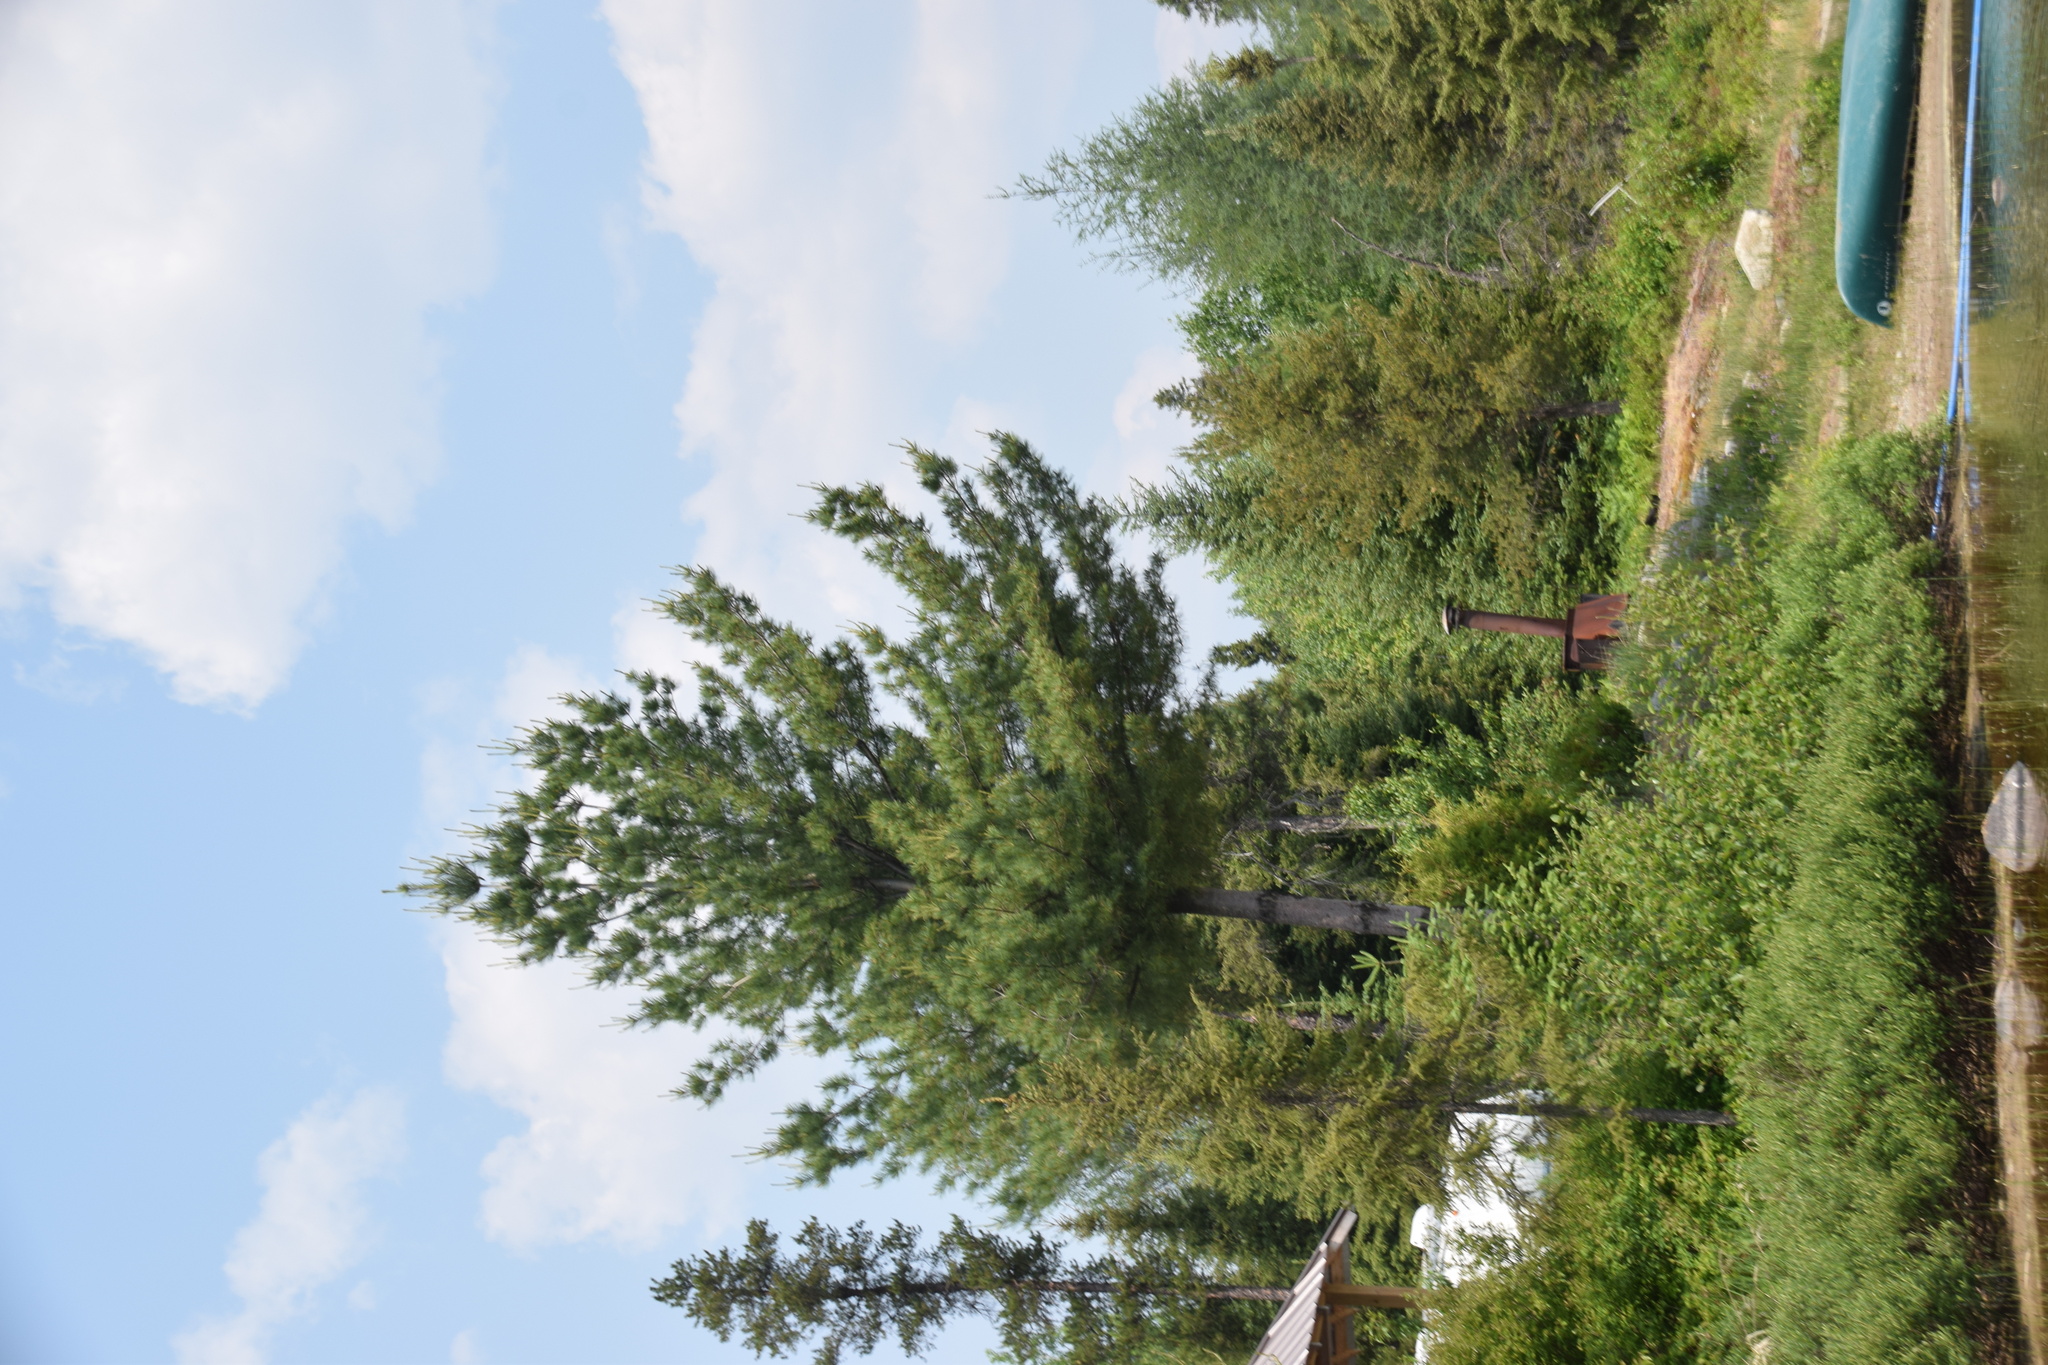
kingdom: Plantae
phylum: Tracheophyta
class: Pinopsida
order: Pinales
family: Pinaceae
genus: Pinus
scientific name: Pinus strobus
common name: Weymouth pine
